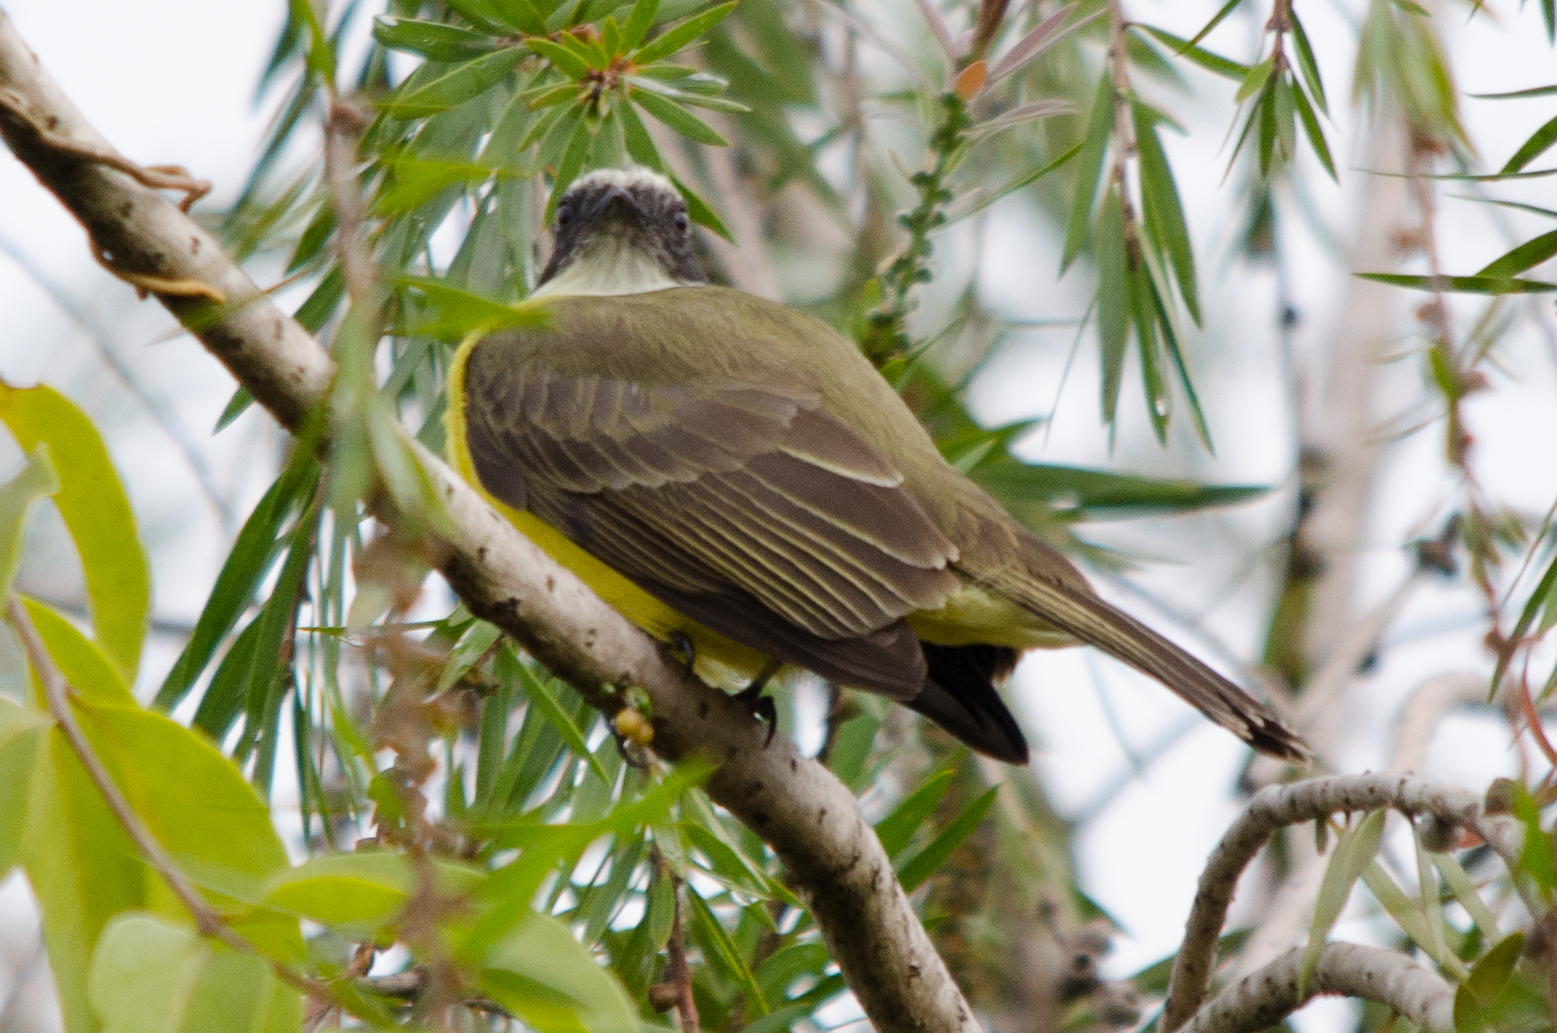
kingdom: Animalia
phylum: Chordata
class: Aves
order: Passeriformes
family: Tyrannidae
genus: Myiozetetes
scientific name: Myiozetetes similis
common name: Social flycatcher
